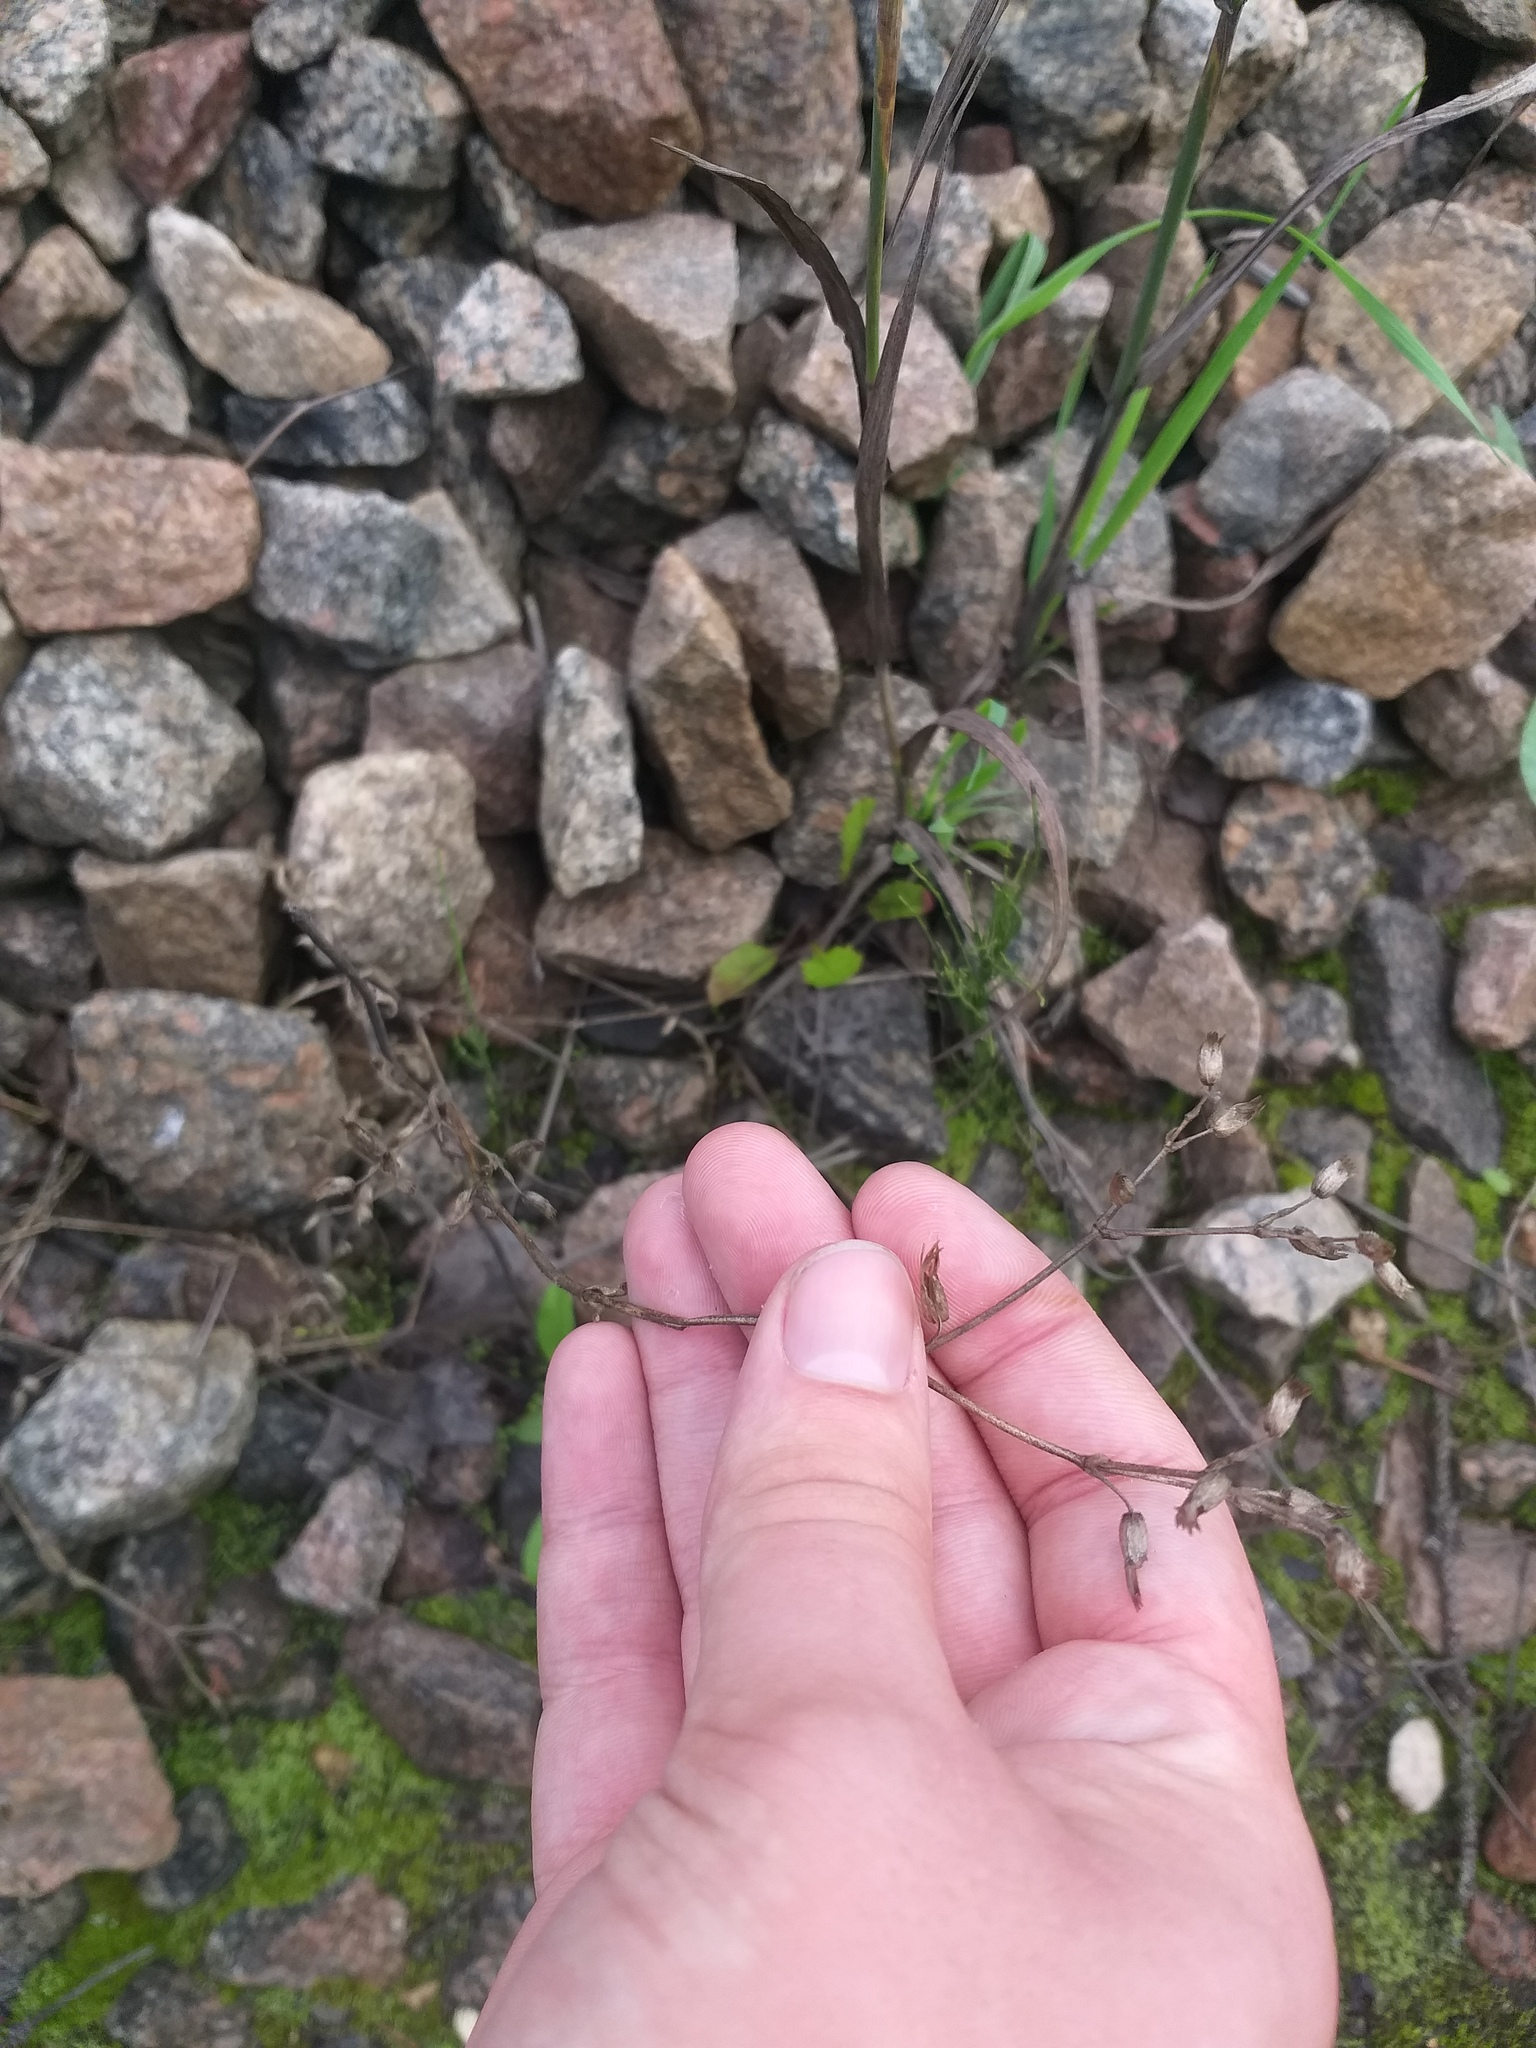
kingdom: Plantae
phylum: Tracheophyta
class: Magnoliopsida
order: Caryophyllales
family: Caryophyllaceae
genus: Cerastium
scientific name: Cerastium holosteoides
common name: Big chickweed
